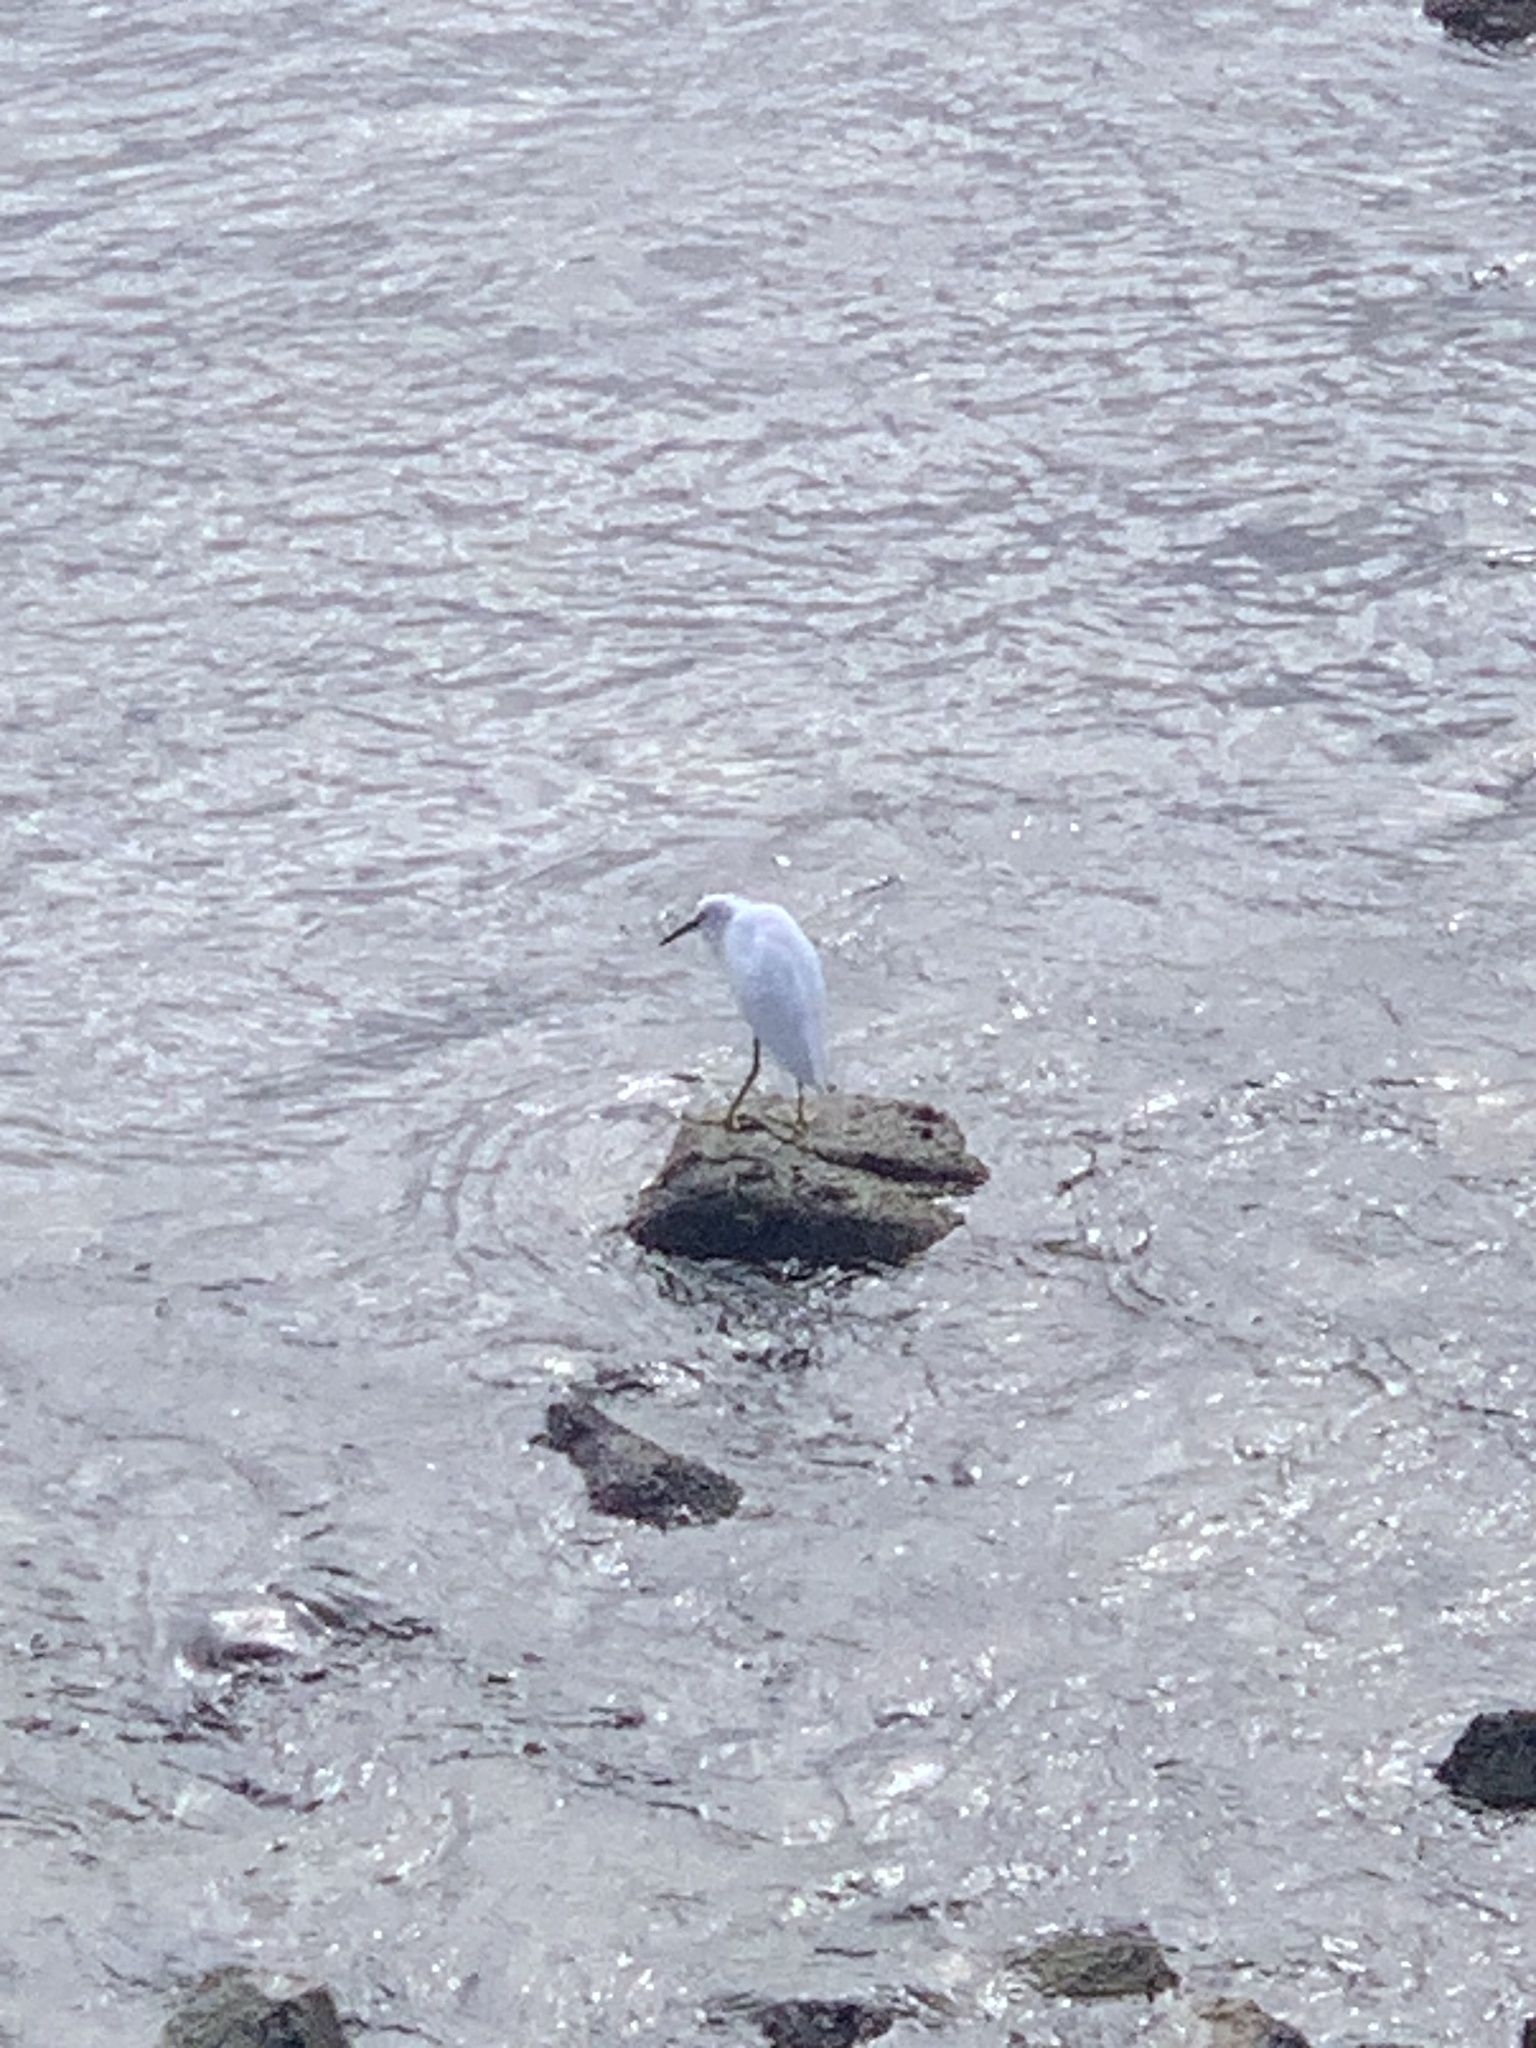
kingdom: Animalia
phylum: Chordata
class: Aves
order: Pelecaniformes
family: Ardeidae
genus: Egretta
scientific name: Egretta thula
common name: Snowy egret
